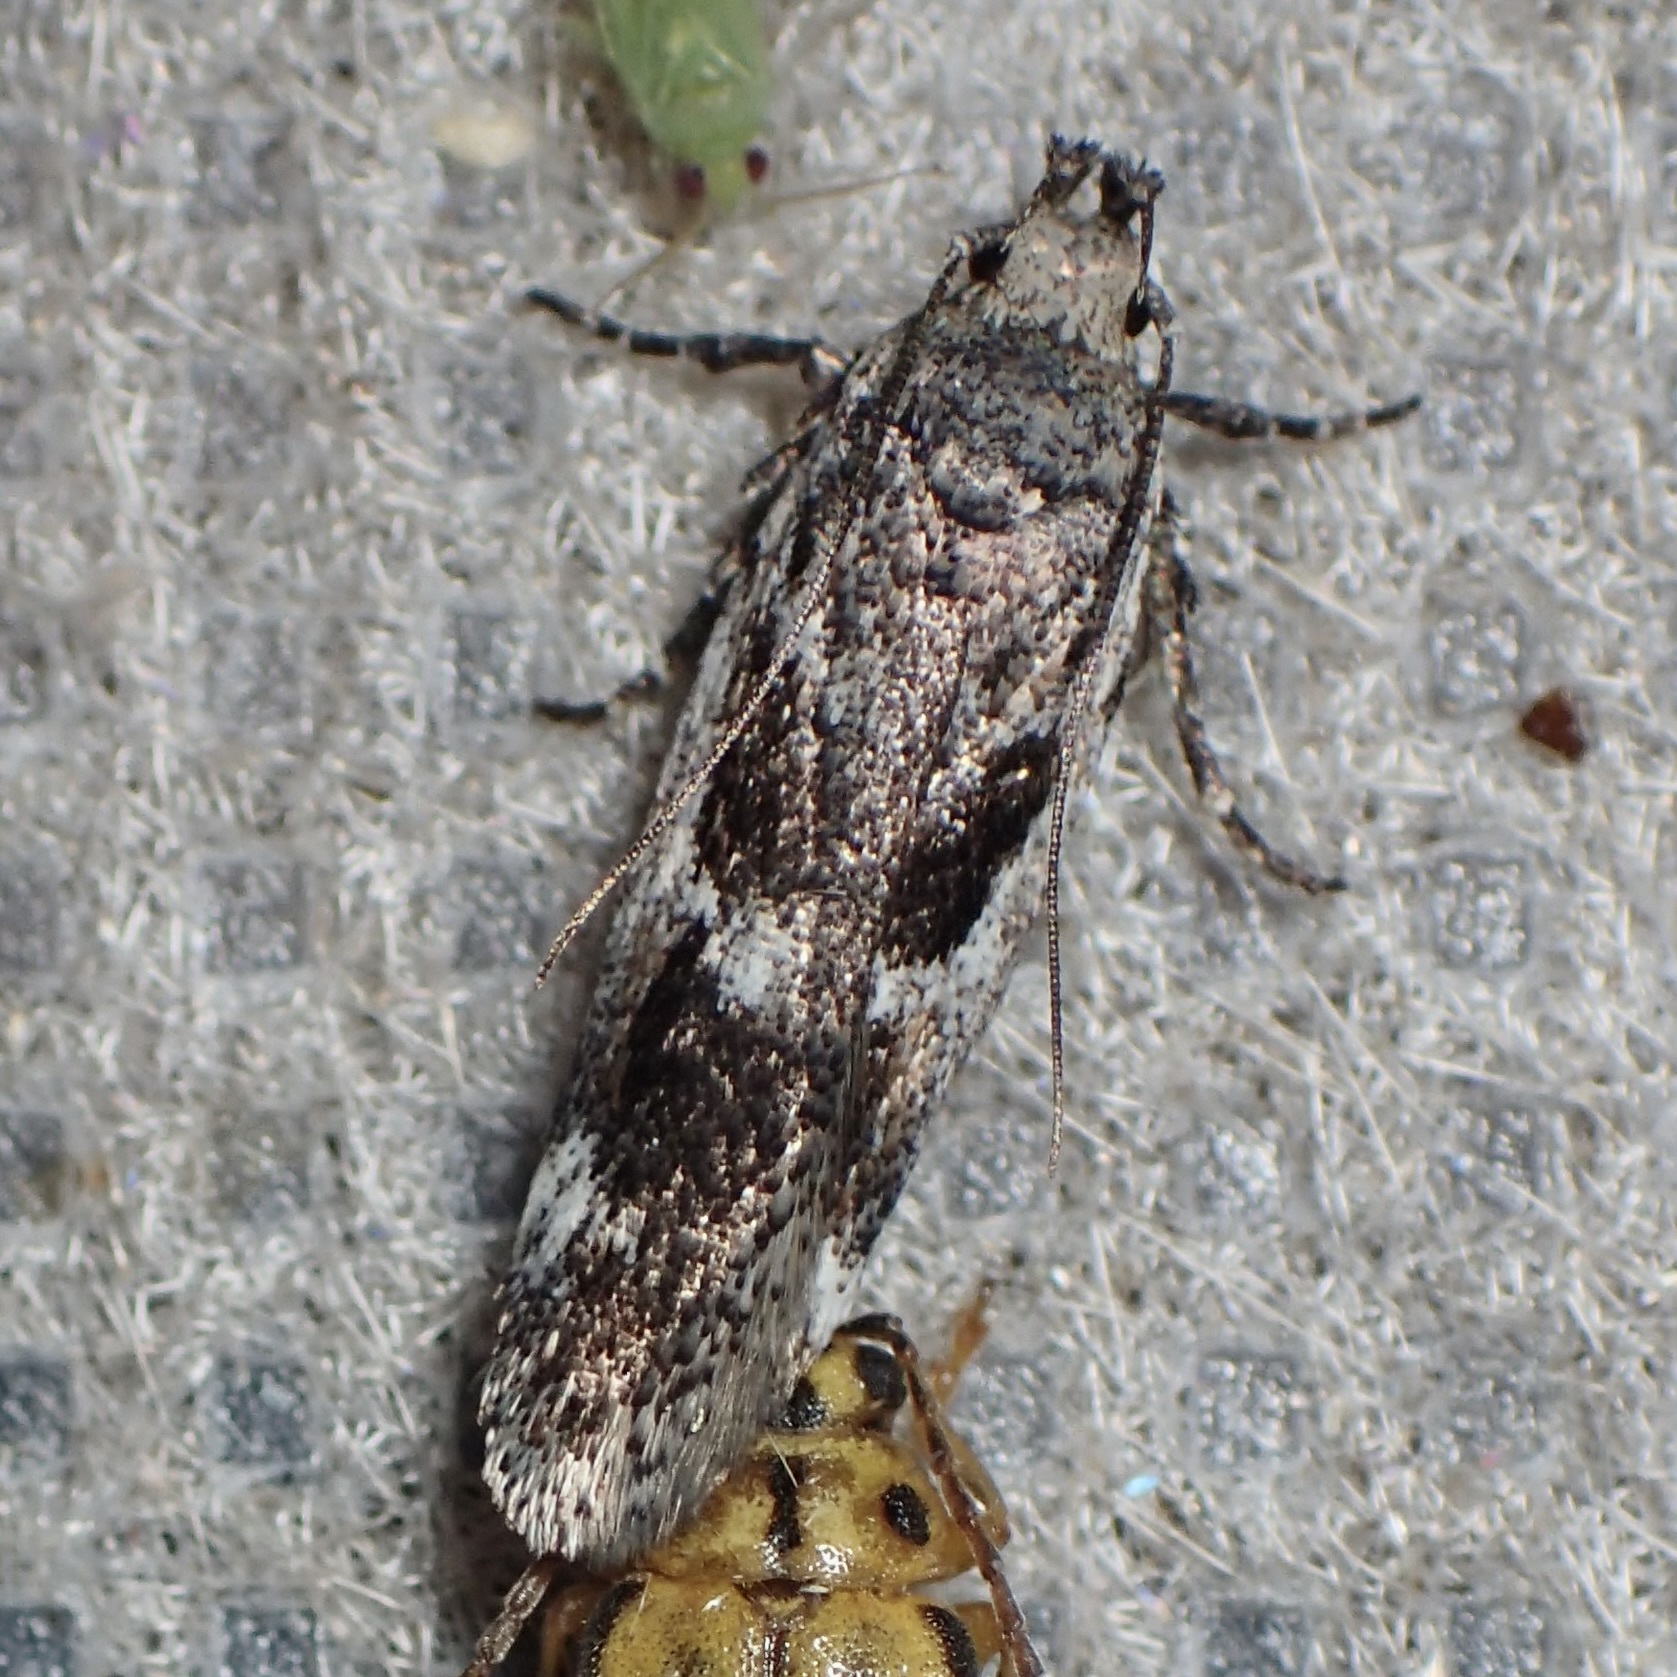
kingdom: Animalia
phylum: Arthropoda
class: Insecta
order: Lepidoptera
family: Gelechiidae
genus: Filatima
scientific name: Filatima obidenna
